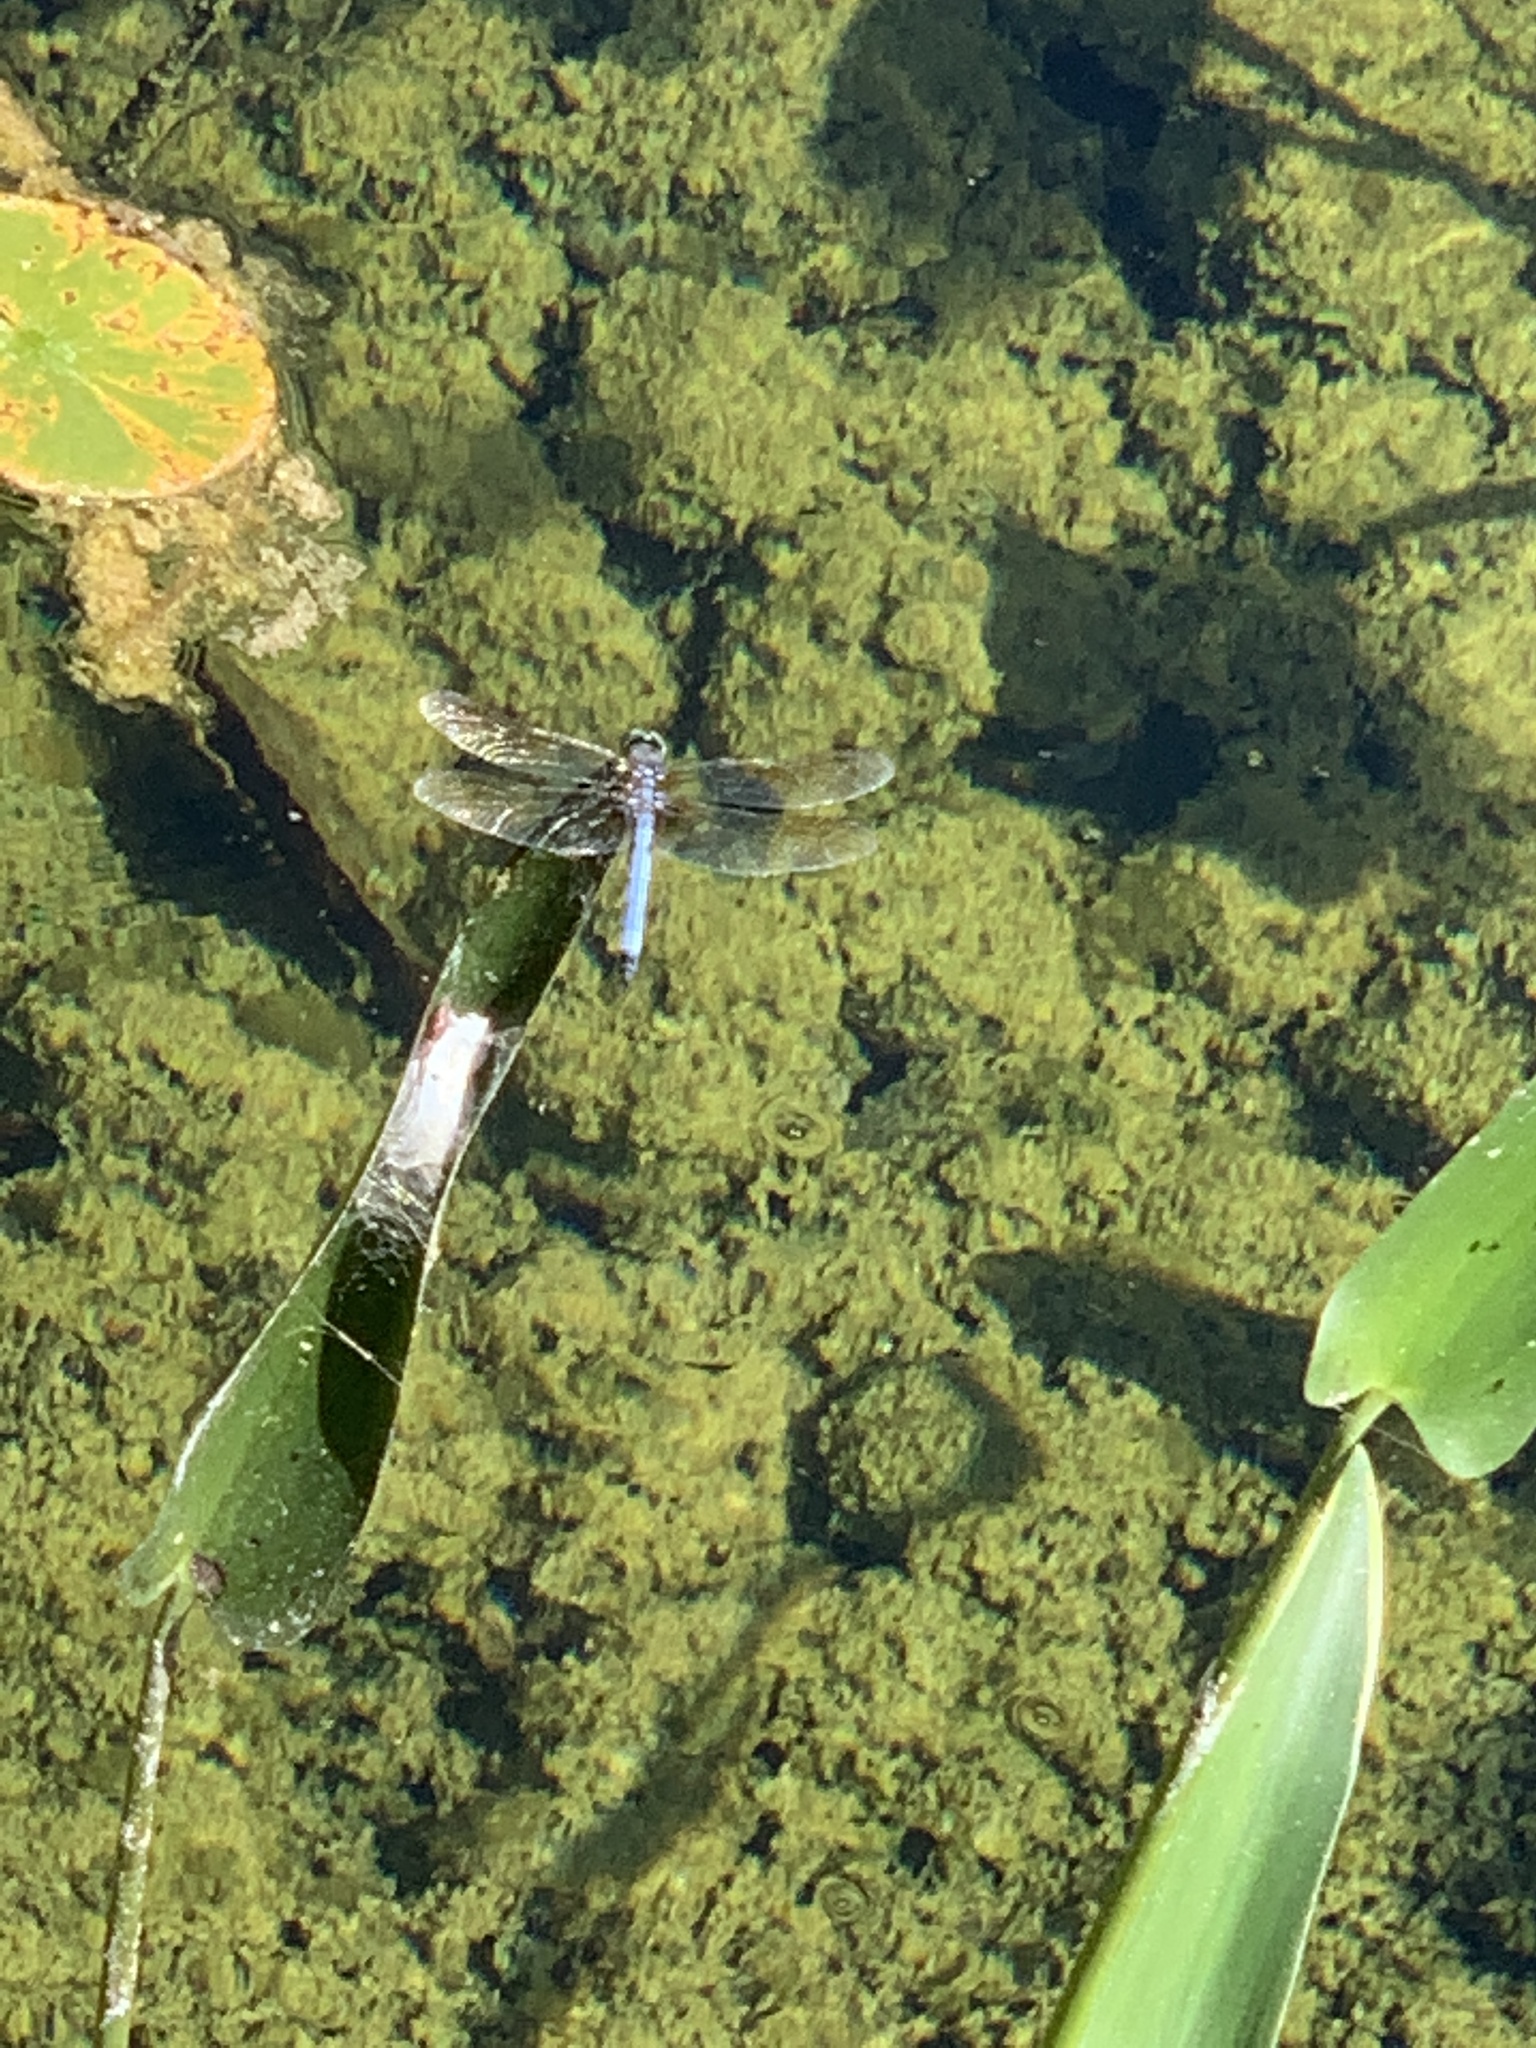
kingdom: Animalia
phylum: Arthropoda
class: Insecta
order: Odonata
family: Libellulidae
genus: Pachydiplax
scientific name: Pachydiplax longipennis
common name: Blue dasher
